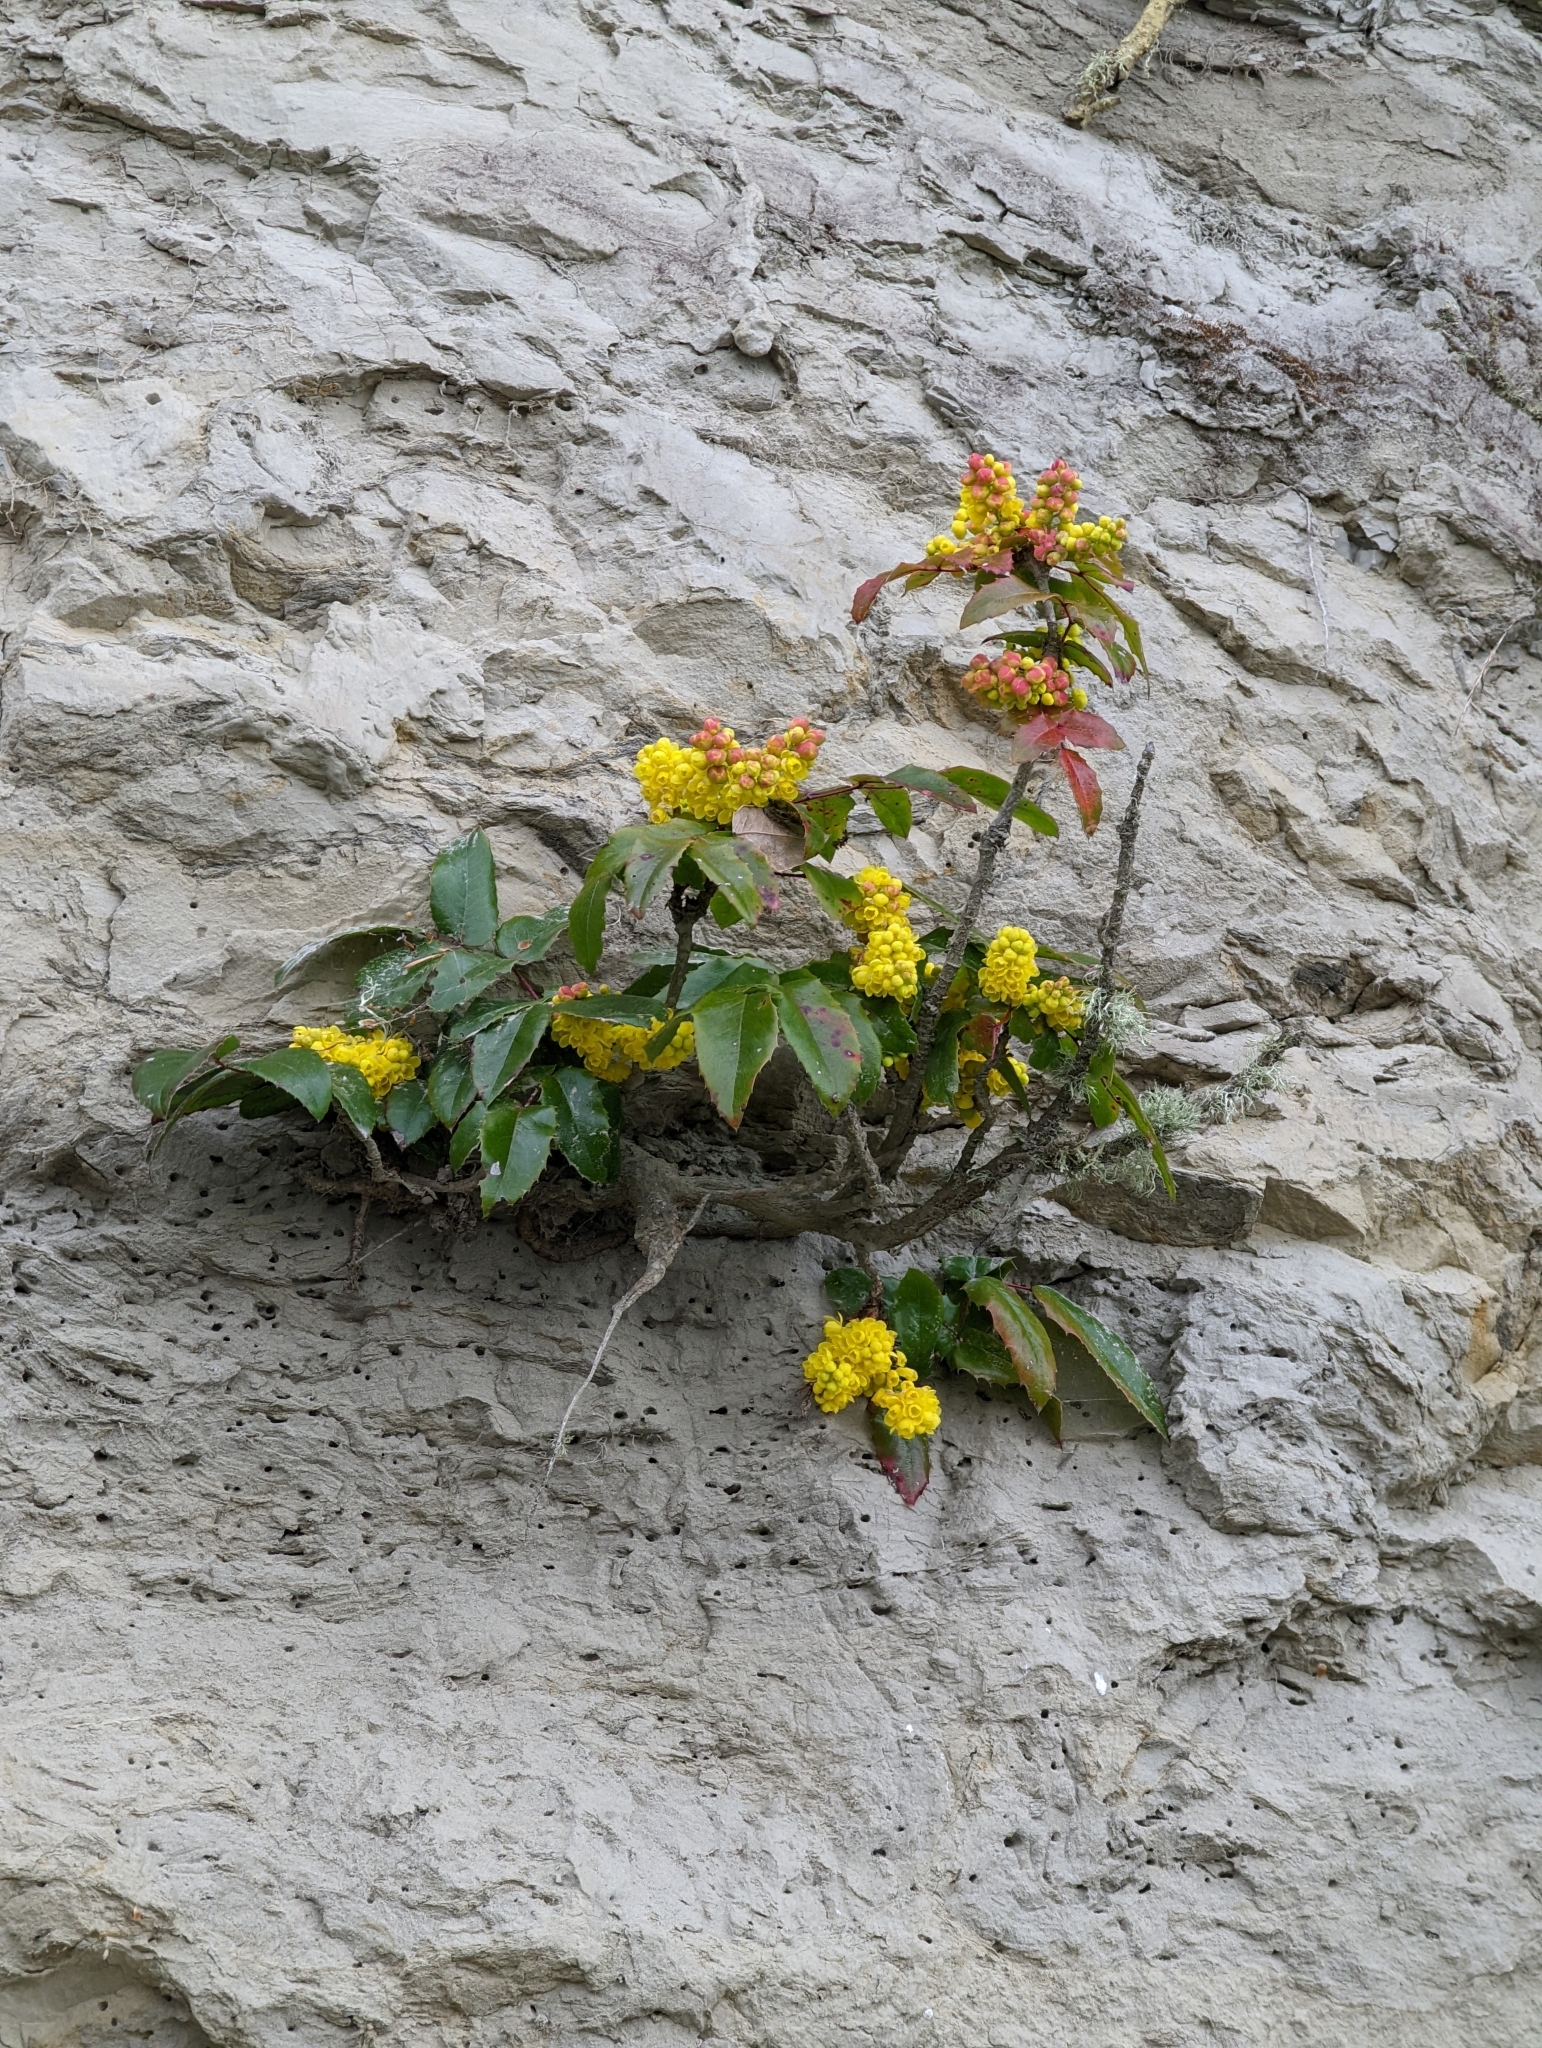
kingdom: Plantae
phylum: Tracheophyta
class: Magnoliopsida
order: Ranunculales
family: Berberidaceae
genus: Mahonia
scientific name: Mahonia aquifolium
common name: Oregon-grape
